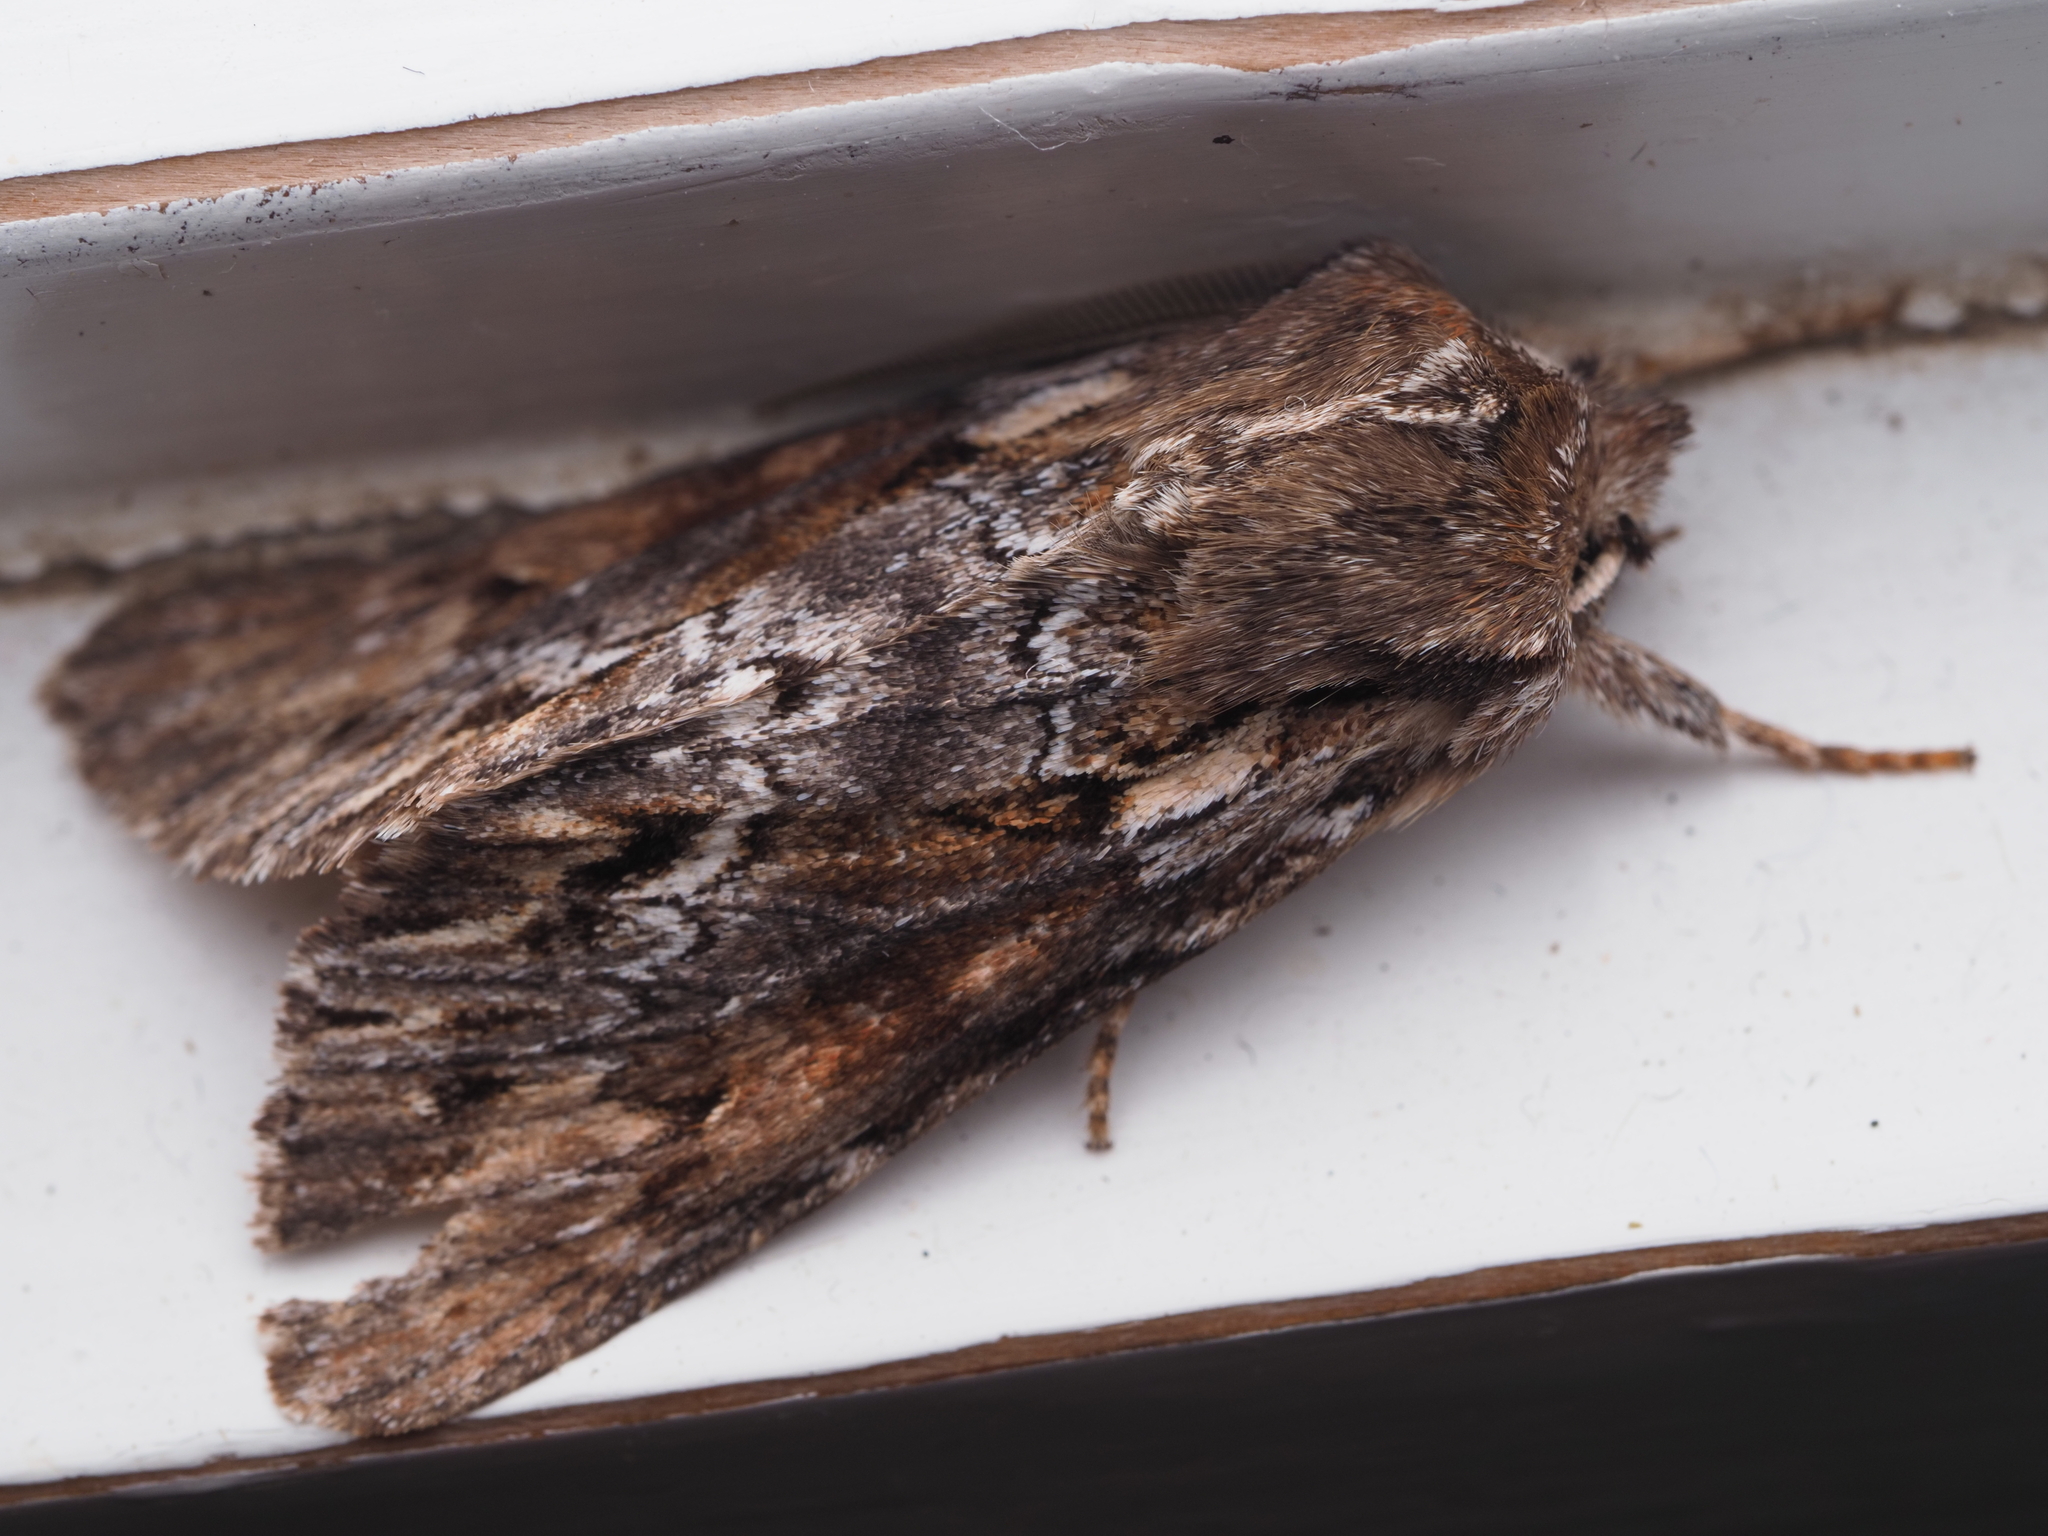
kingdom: Animalia
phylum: Arthropoda
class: Insecta
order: Lepidoptera
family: Noctuidae
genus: Ichneutica
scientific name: Ichneutica
